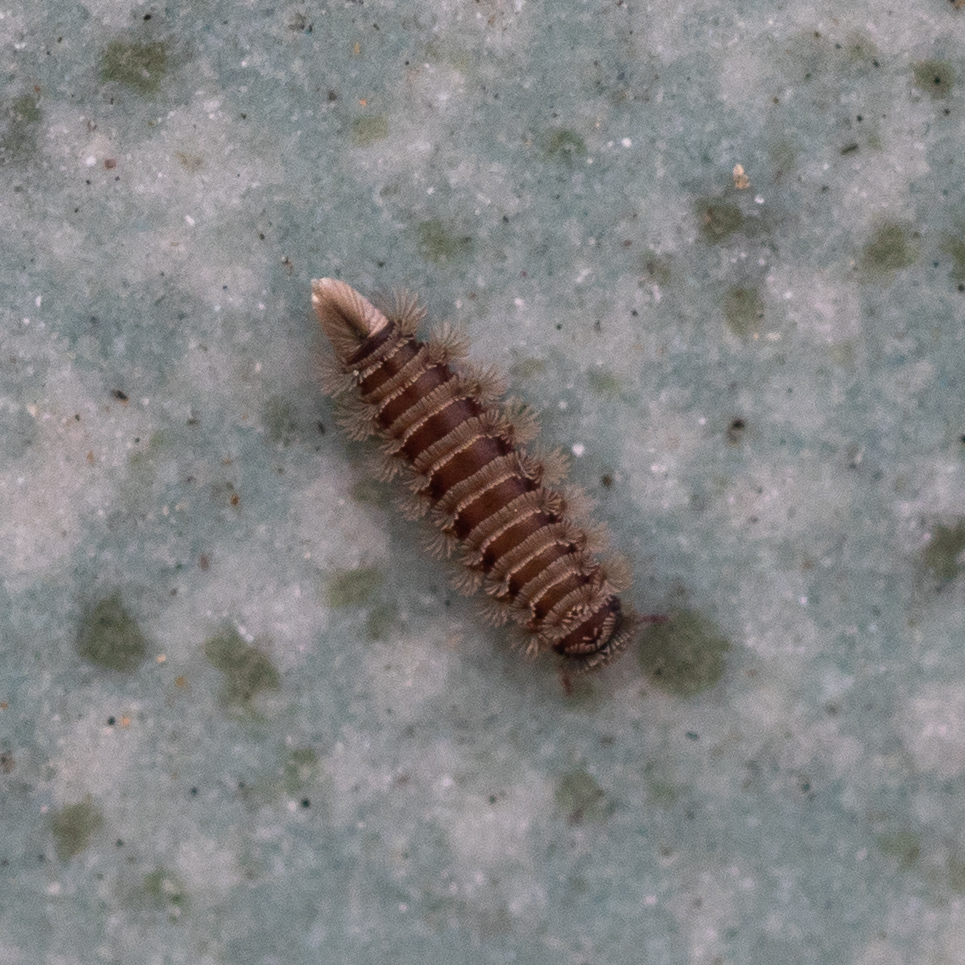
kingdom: Animalia
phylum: Arthropoda
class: Diplopoda
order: Polyxenida
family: Polyxenidae
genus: Polyxenus
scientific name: Polyxenus lagurus
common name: Bristly millipede
